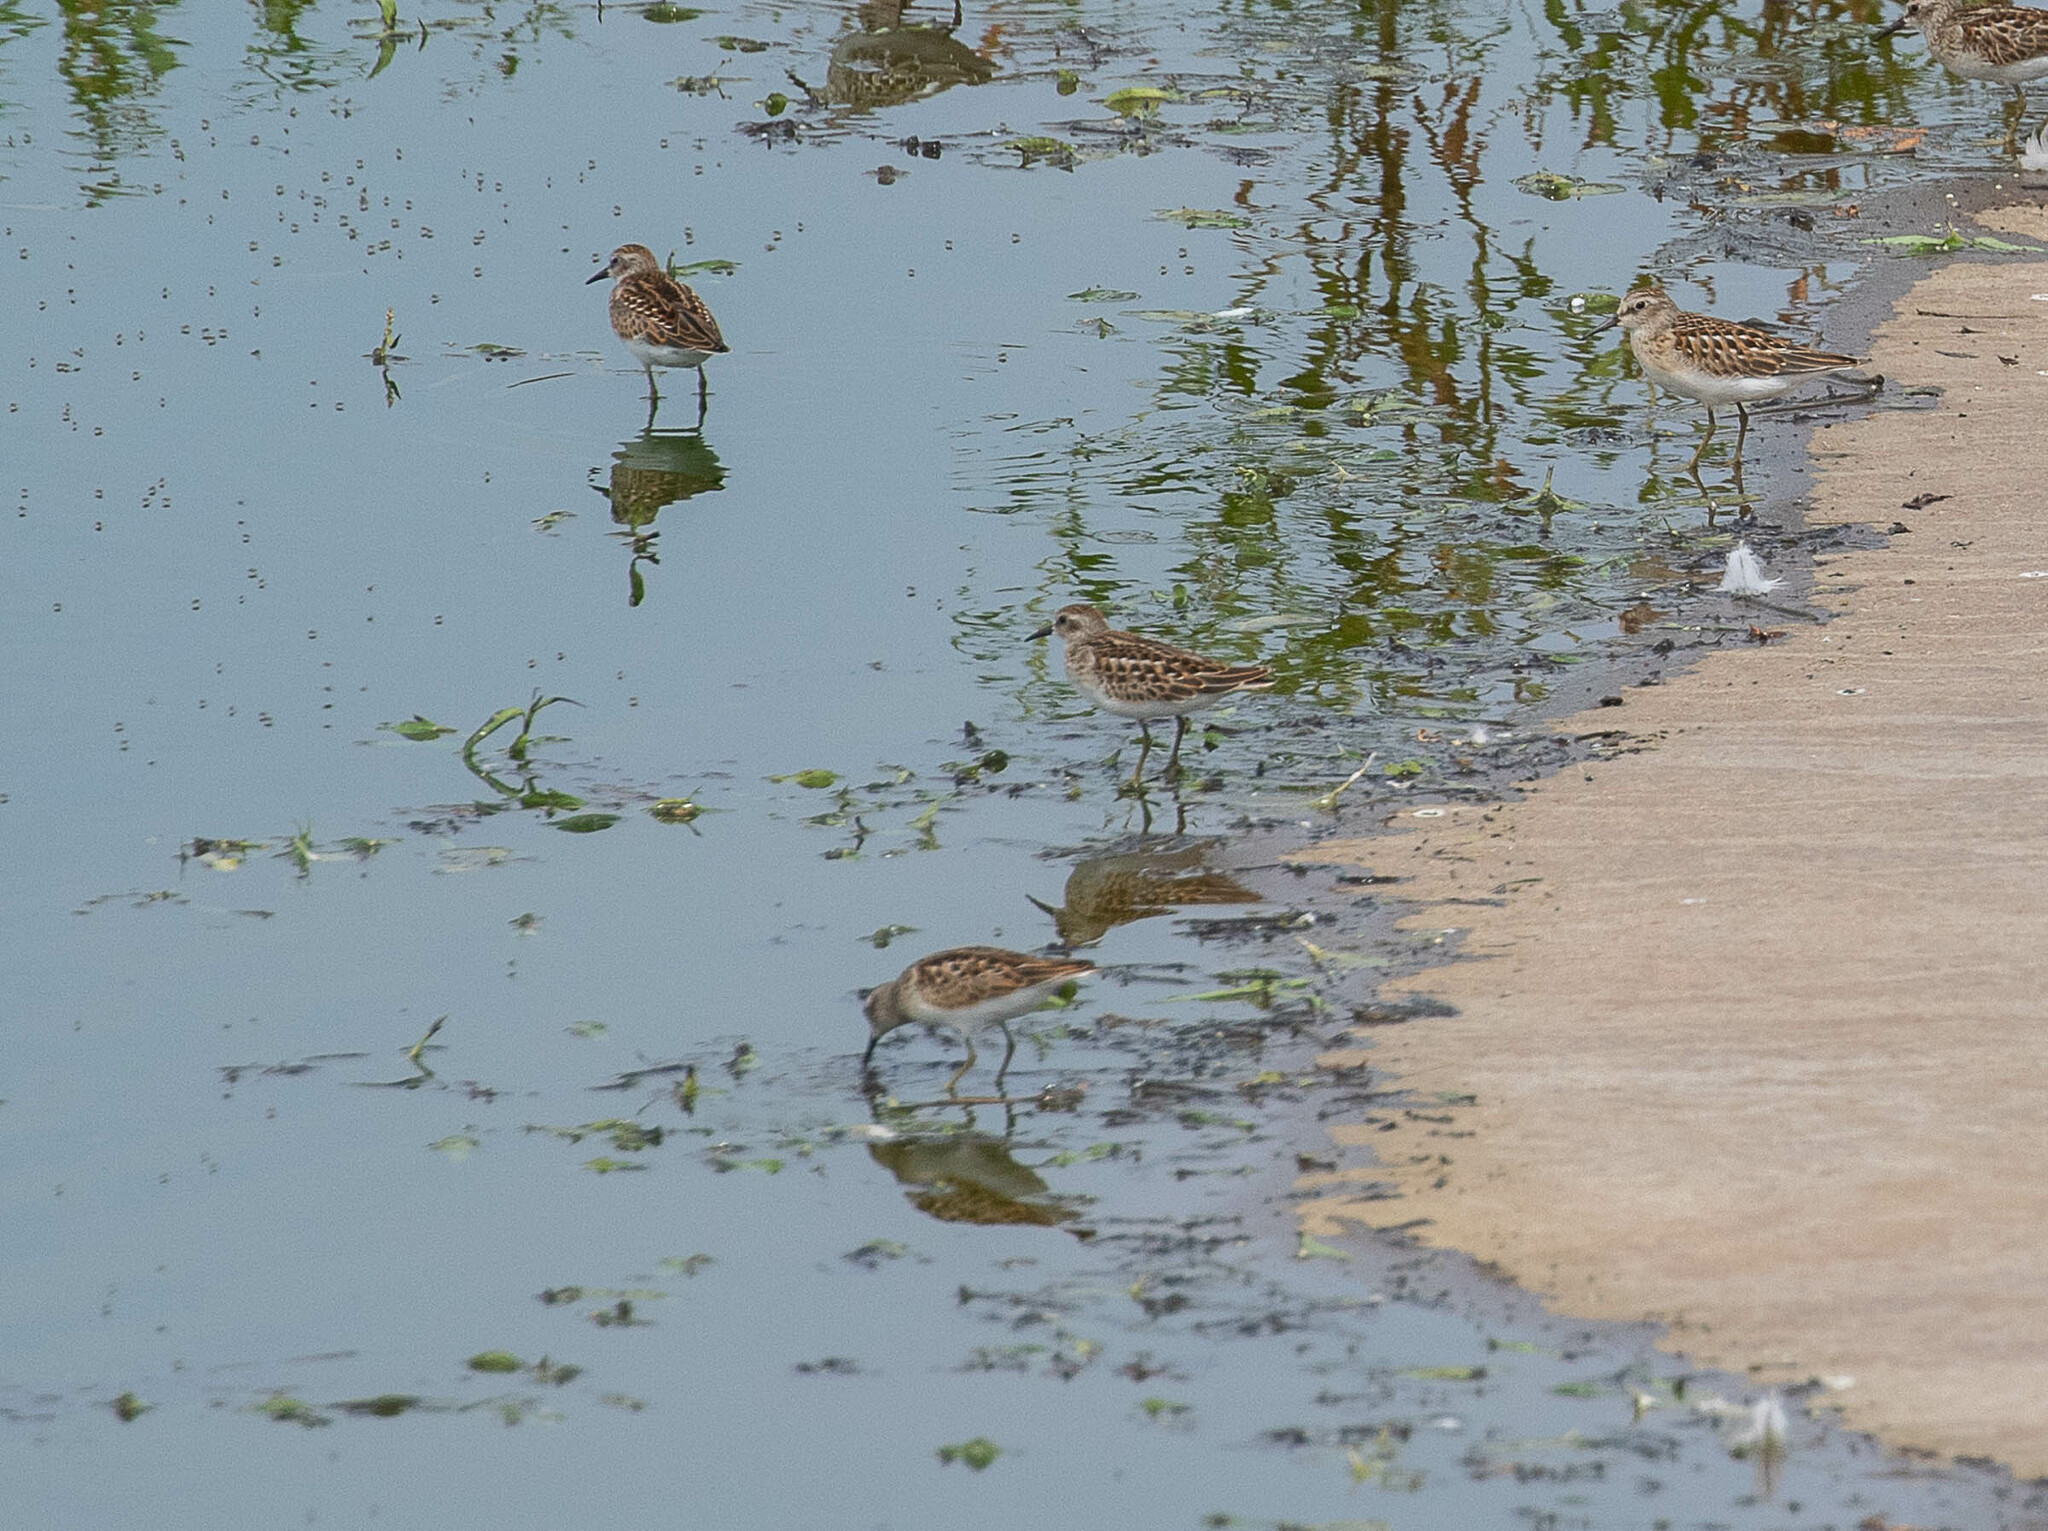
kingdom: Animalia
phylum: Chordata
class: Aves
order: Charadriiformes
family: Scolopacidae
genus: Calidris
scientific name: Calidris minutilla
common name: Least sandpiper
